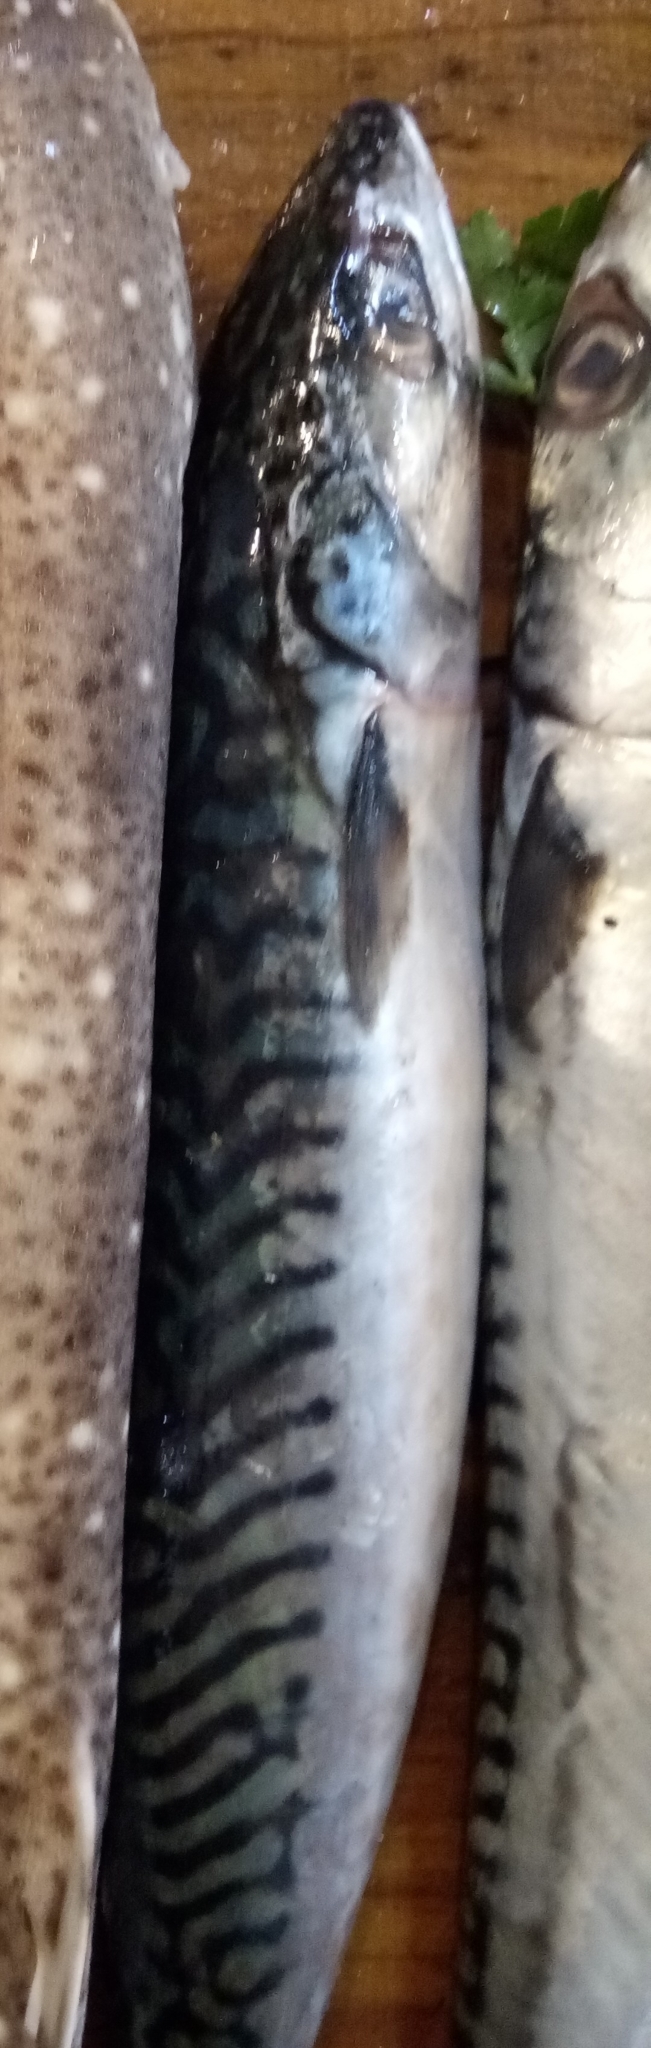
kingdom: Animalia
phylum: Chordata
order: Perciformes
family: Scombridae
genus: Scomber
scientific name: Scomber scombrus
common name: Mackerel
